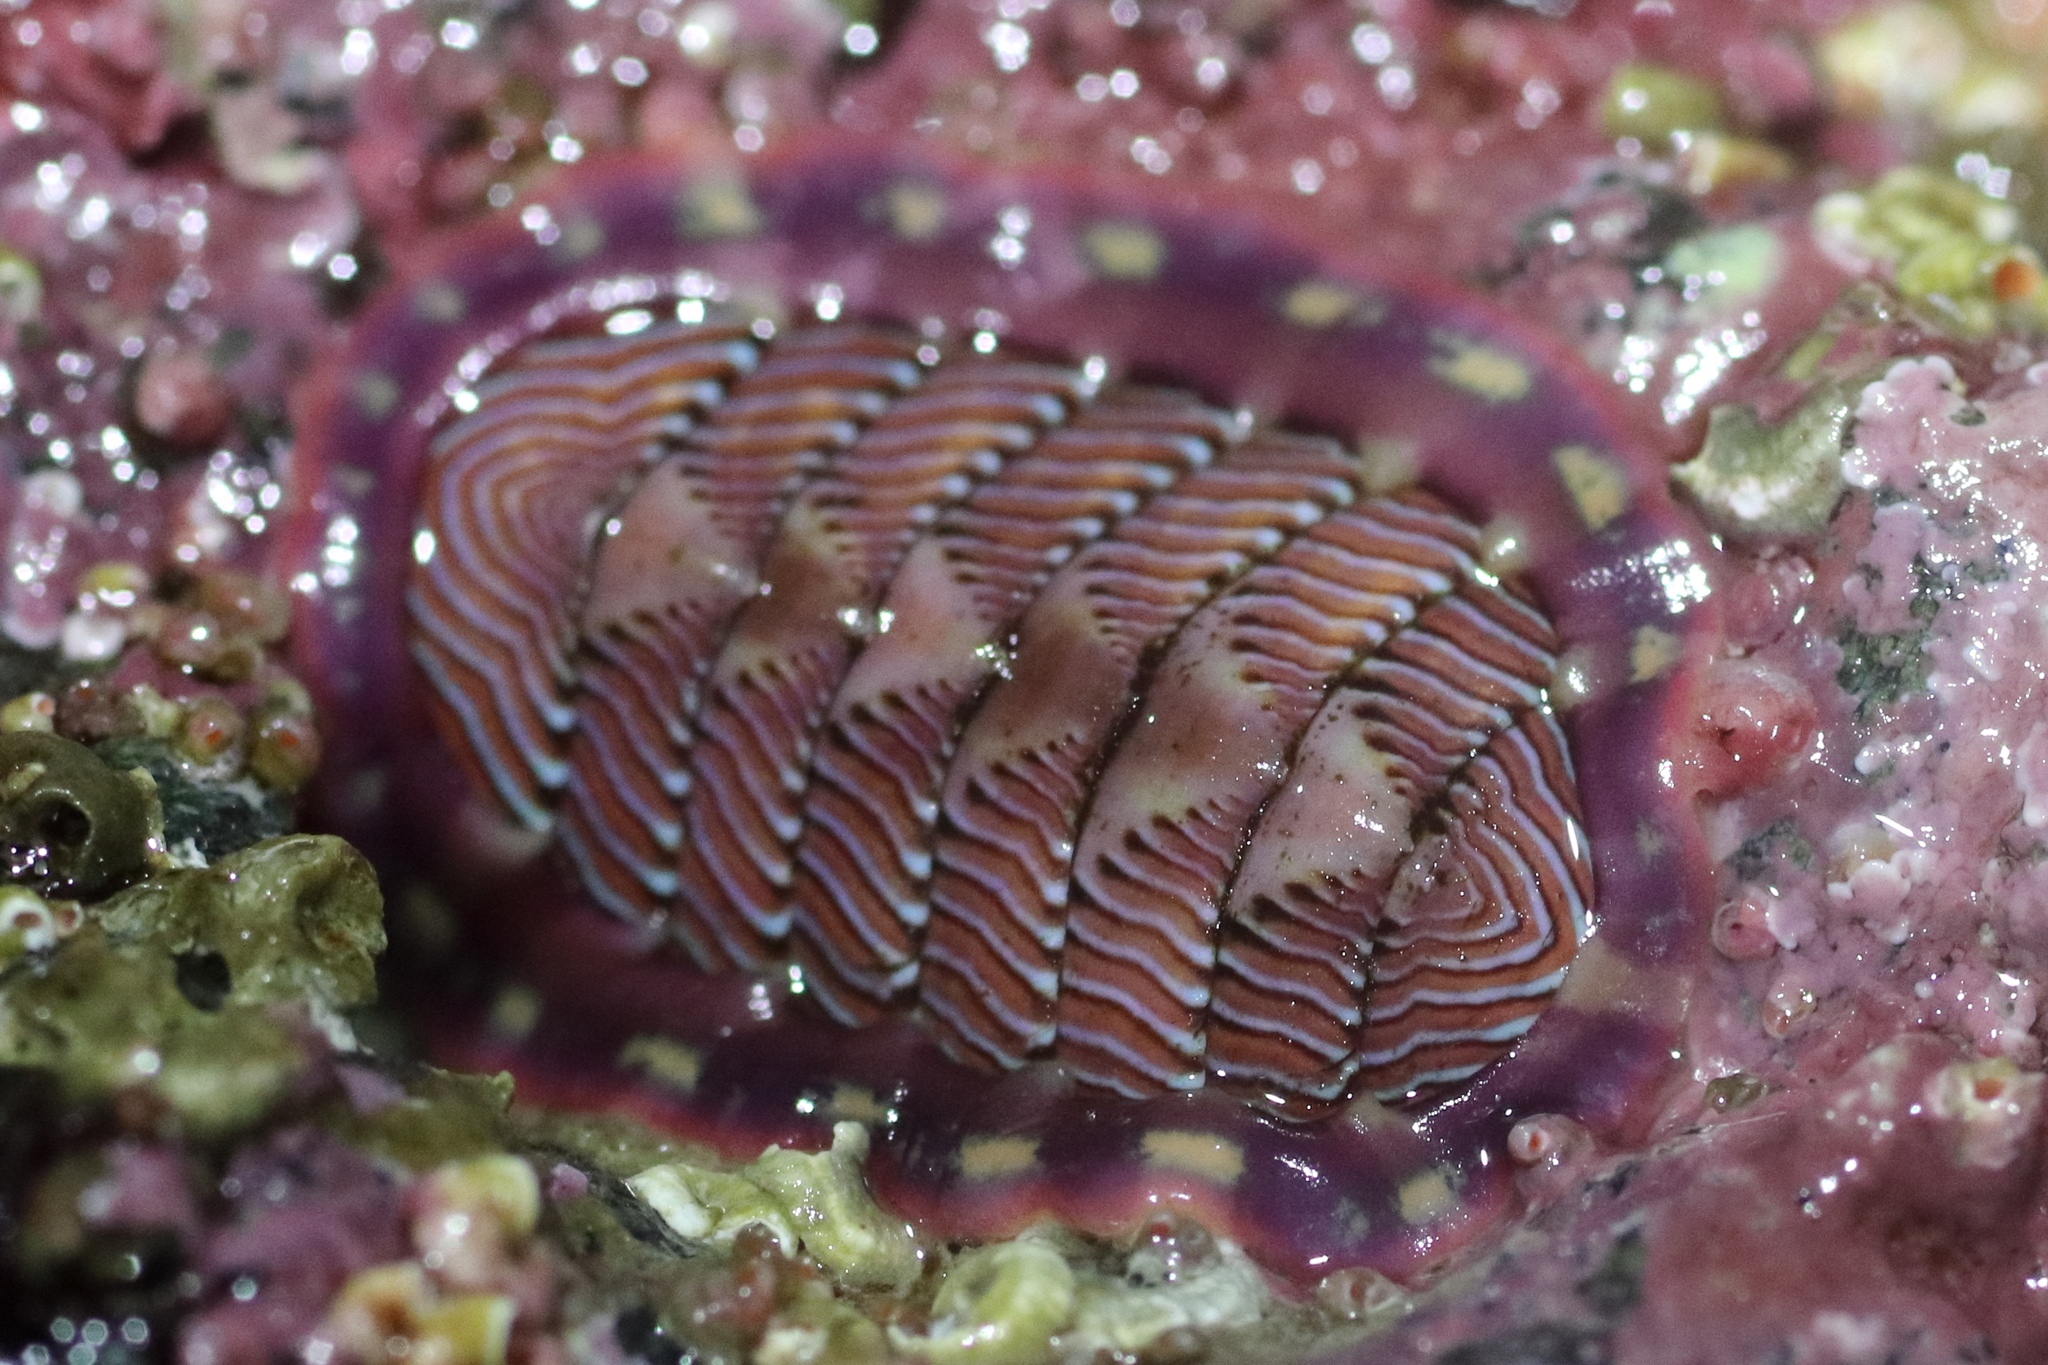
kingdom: Animalia
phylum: Mollusca
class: Polyplacophora
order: Chitonida
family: Tonicellidae
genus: Tonicella
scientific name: Tonicella lineata
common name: Lined chiton
